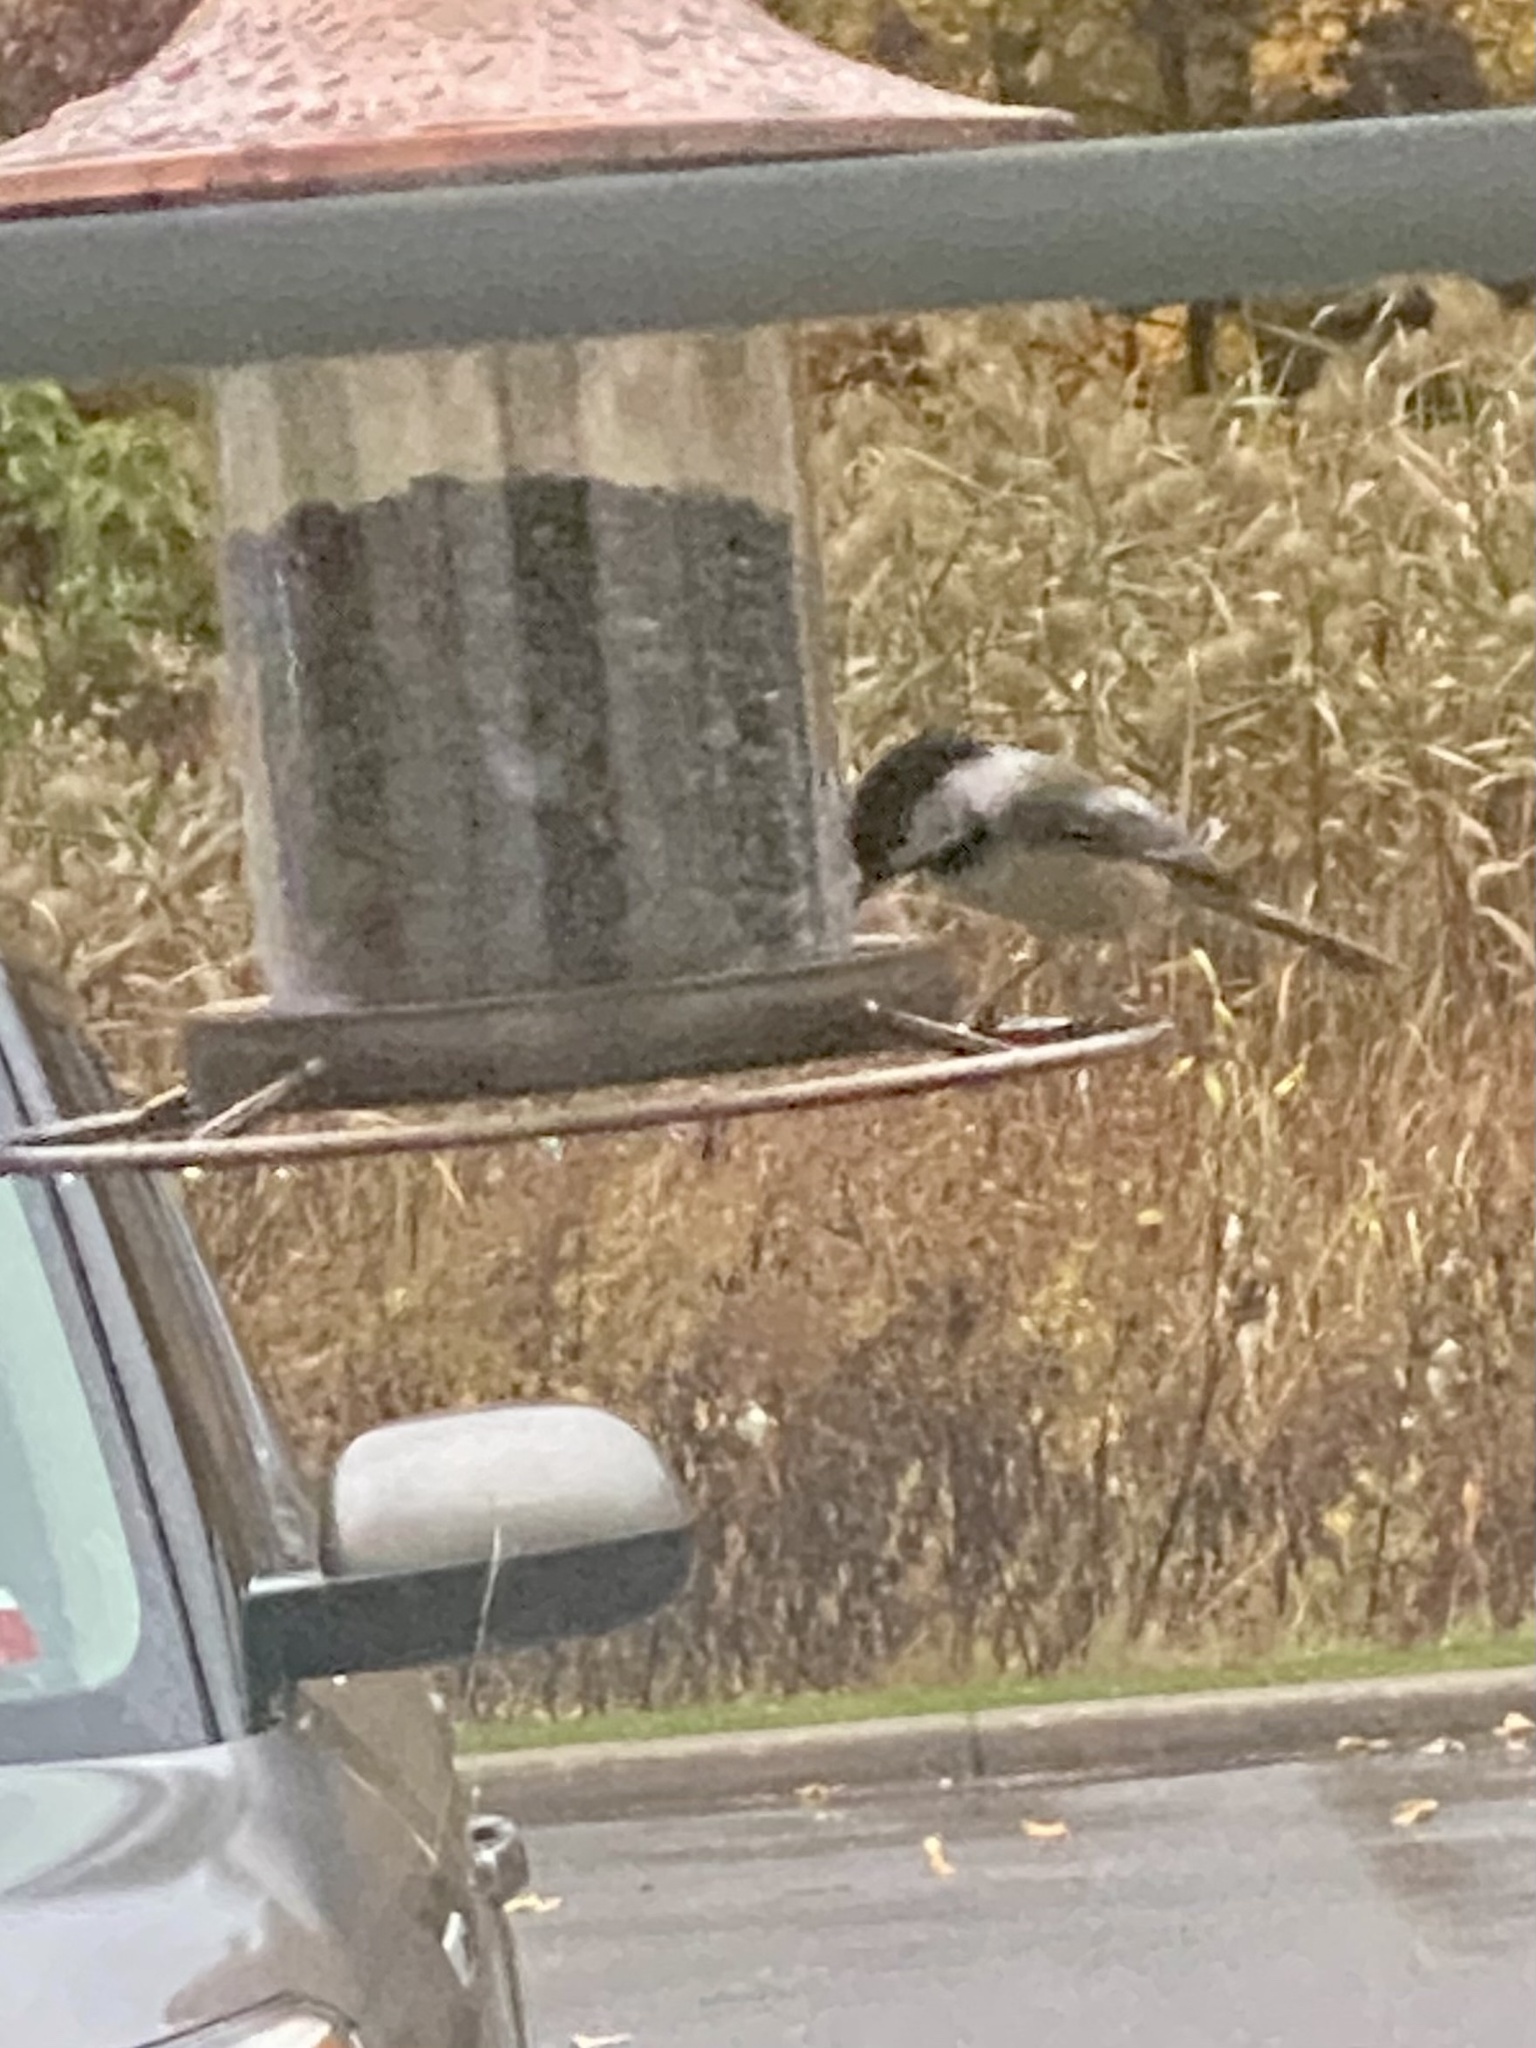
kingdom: Animalia
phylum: Chordata
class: Aves
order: Passeriformes
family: Paridae
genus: Poecile
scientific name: Poecile atricapillus
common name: Black-capped chickadee
